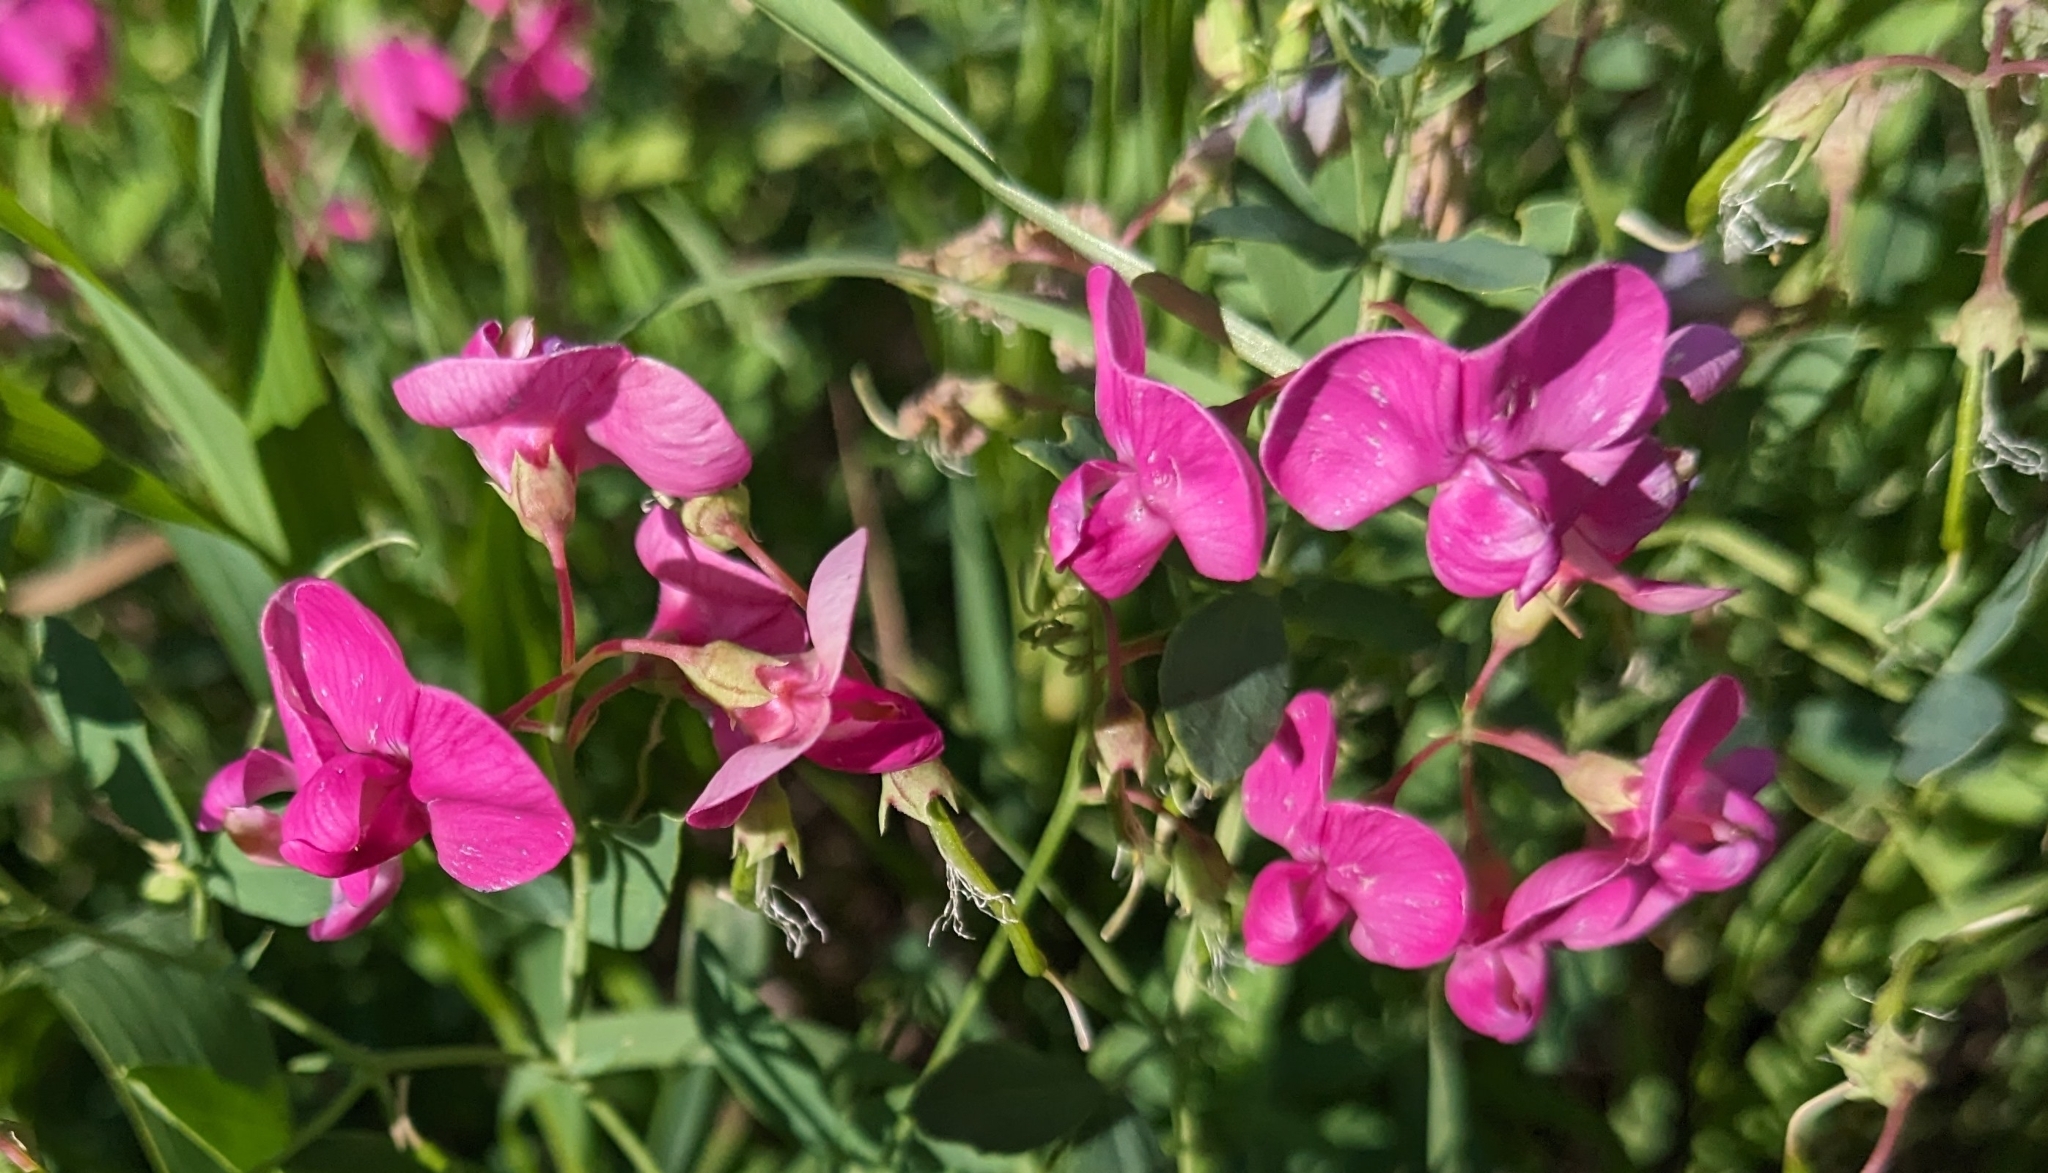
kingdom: Plantae
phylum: Tracheophyta
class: Magnoliopsida
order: Fabales
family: Fabaceae
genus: Lathyrus
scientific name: Lathyrus tuberosus
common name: Tuberous pea
